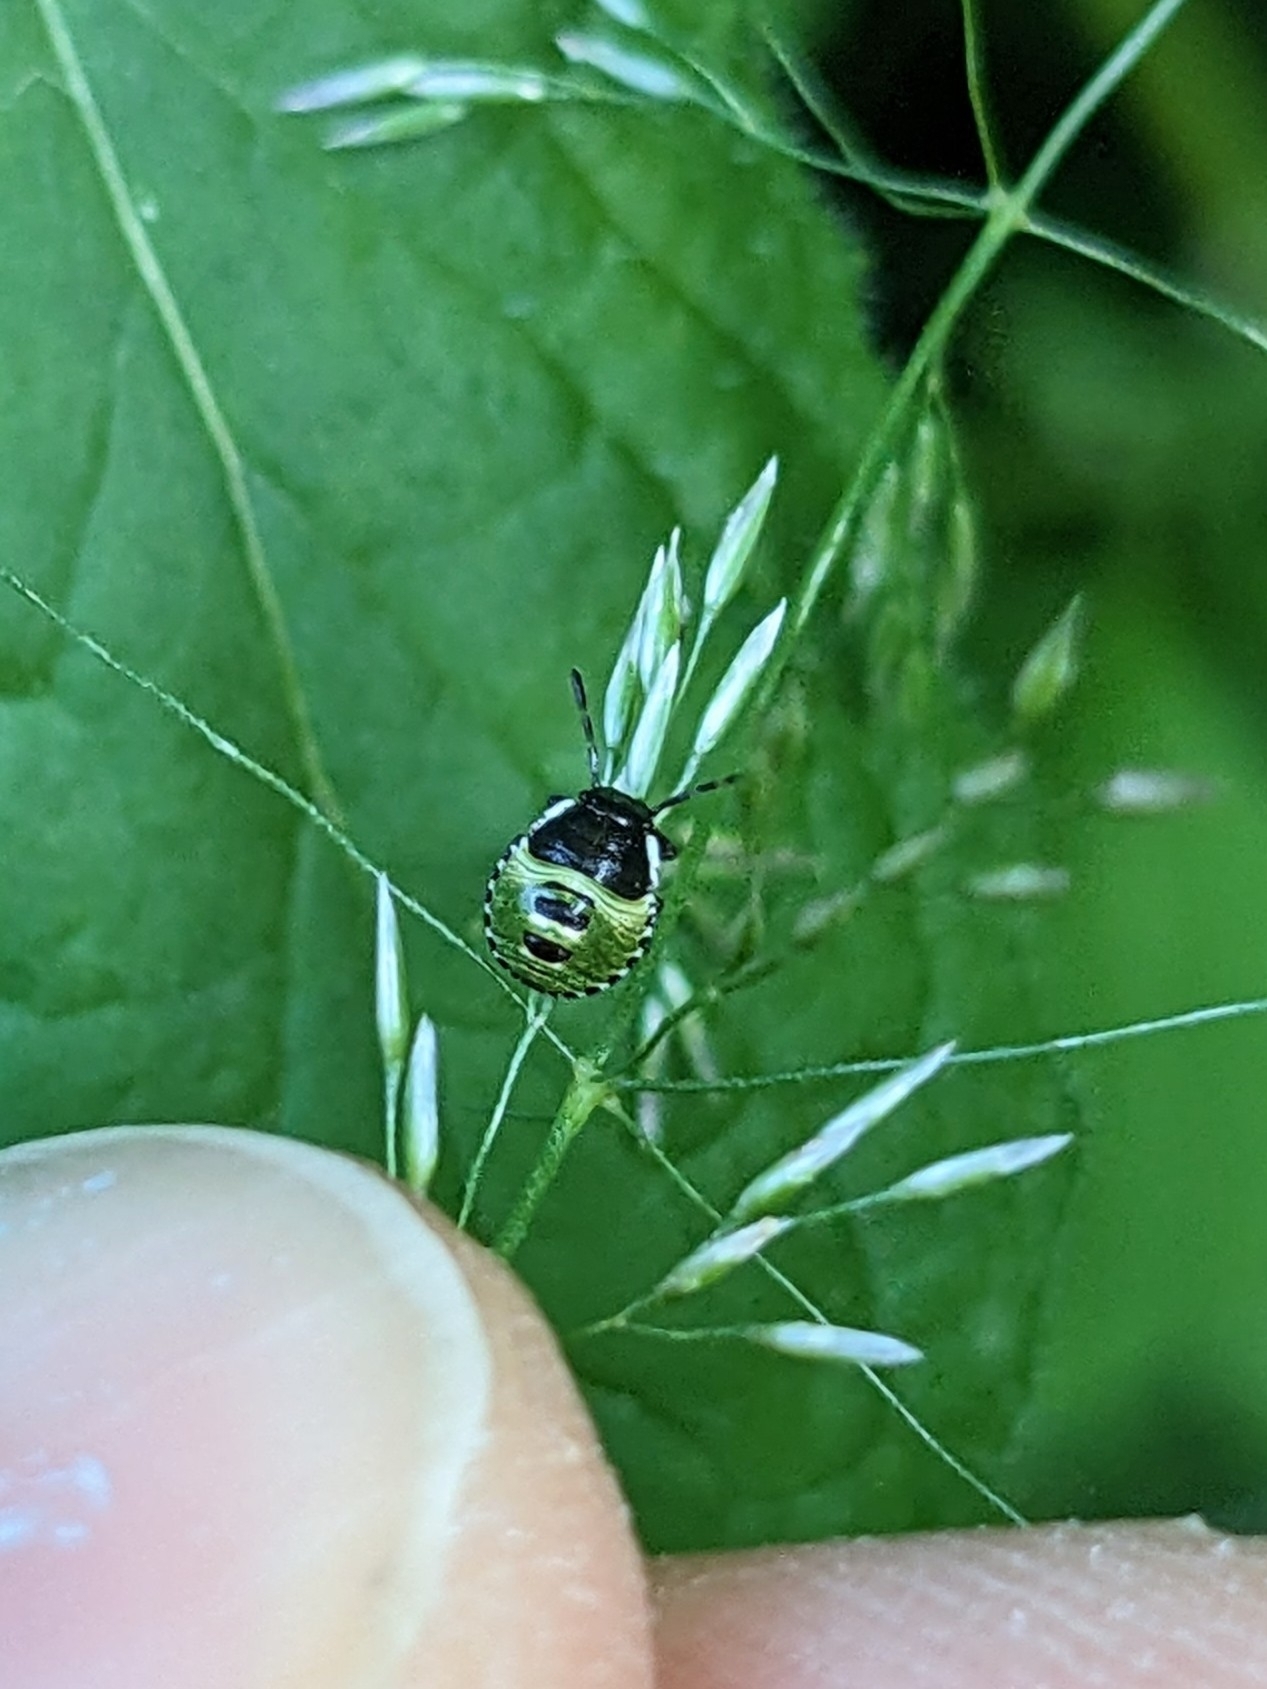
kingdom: Animalia
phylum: Arthropoda
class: Insecta
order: Hemiptera
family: Pentatomidae
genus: Palomena
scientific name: Palomena prasina
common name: Green shieldbug
